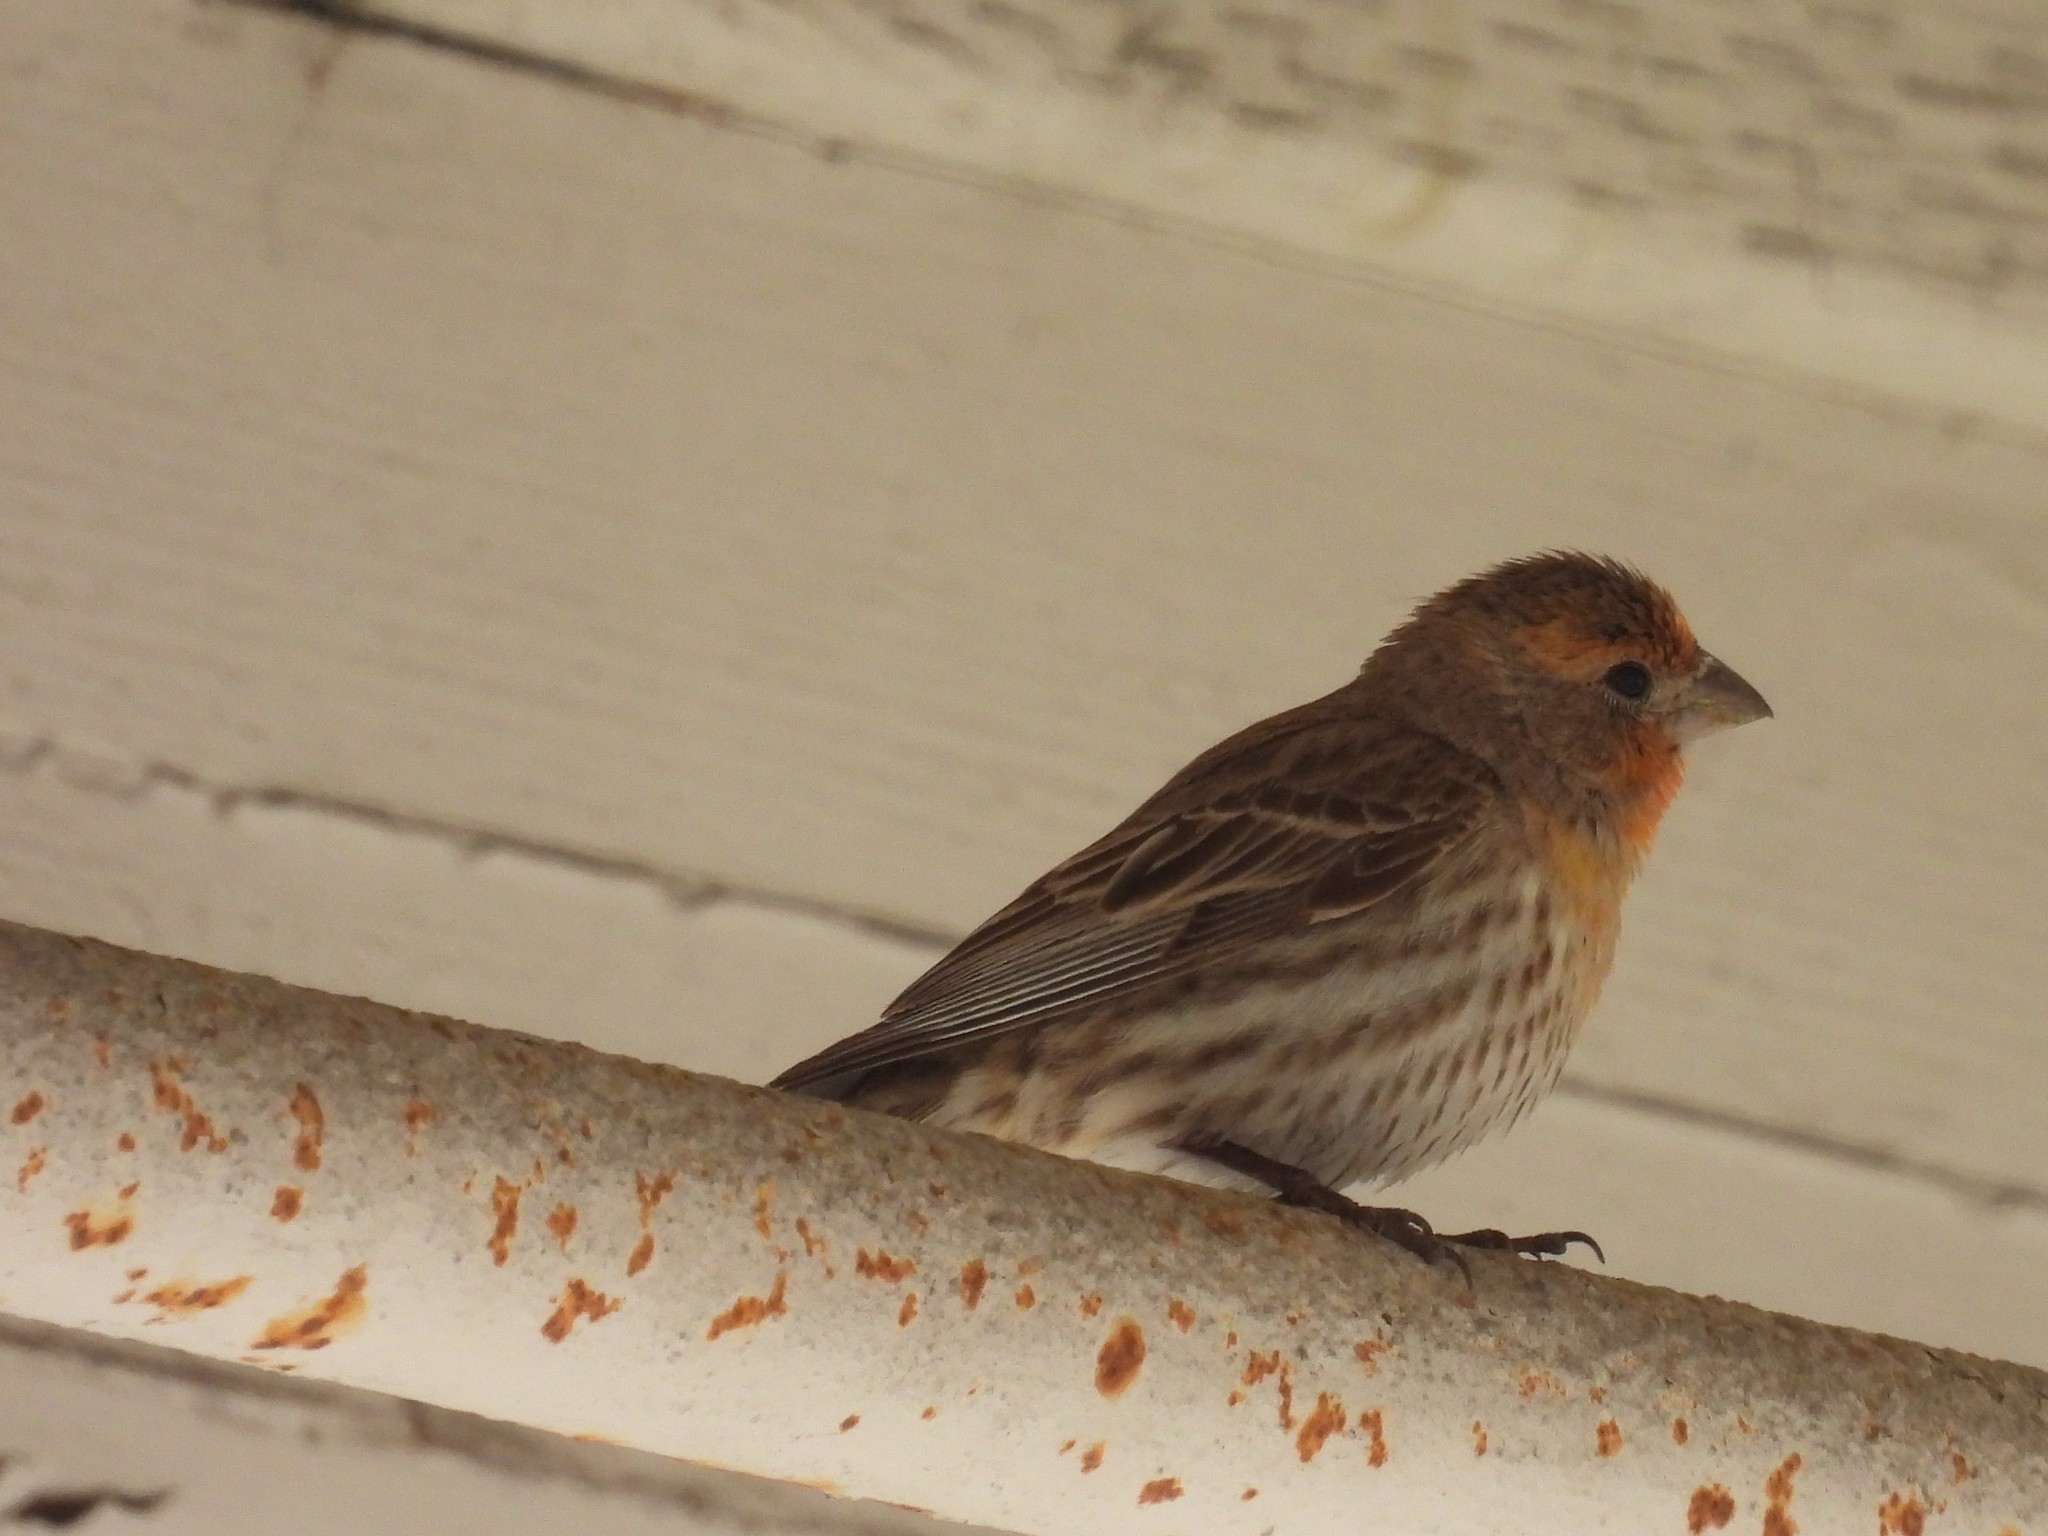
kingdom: Animalia
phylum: Chordata
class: Aves
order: Passeriformes
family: Fringillidae
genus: Haemorhous
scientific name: Haemorhous mexicanus
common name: House finch
